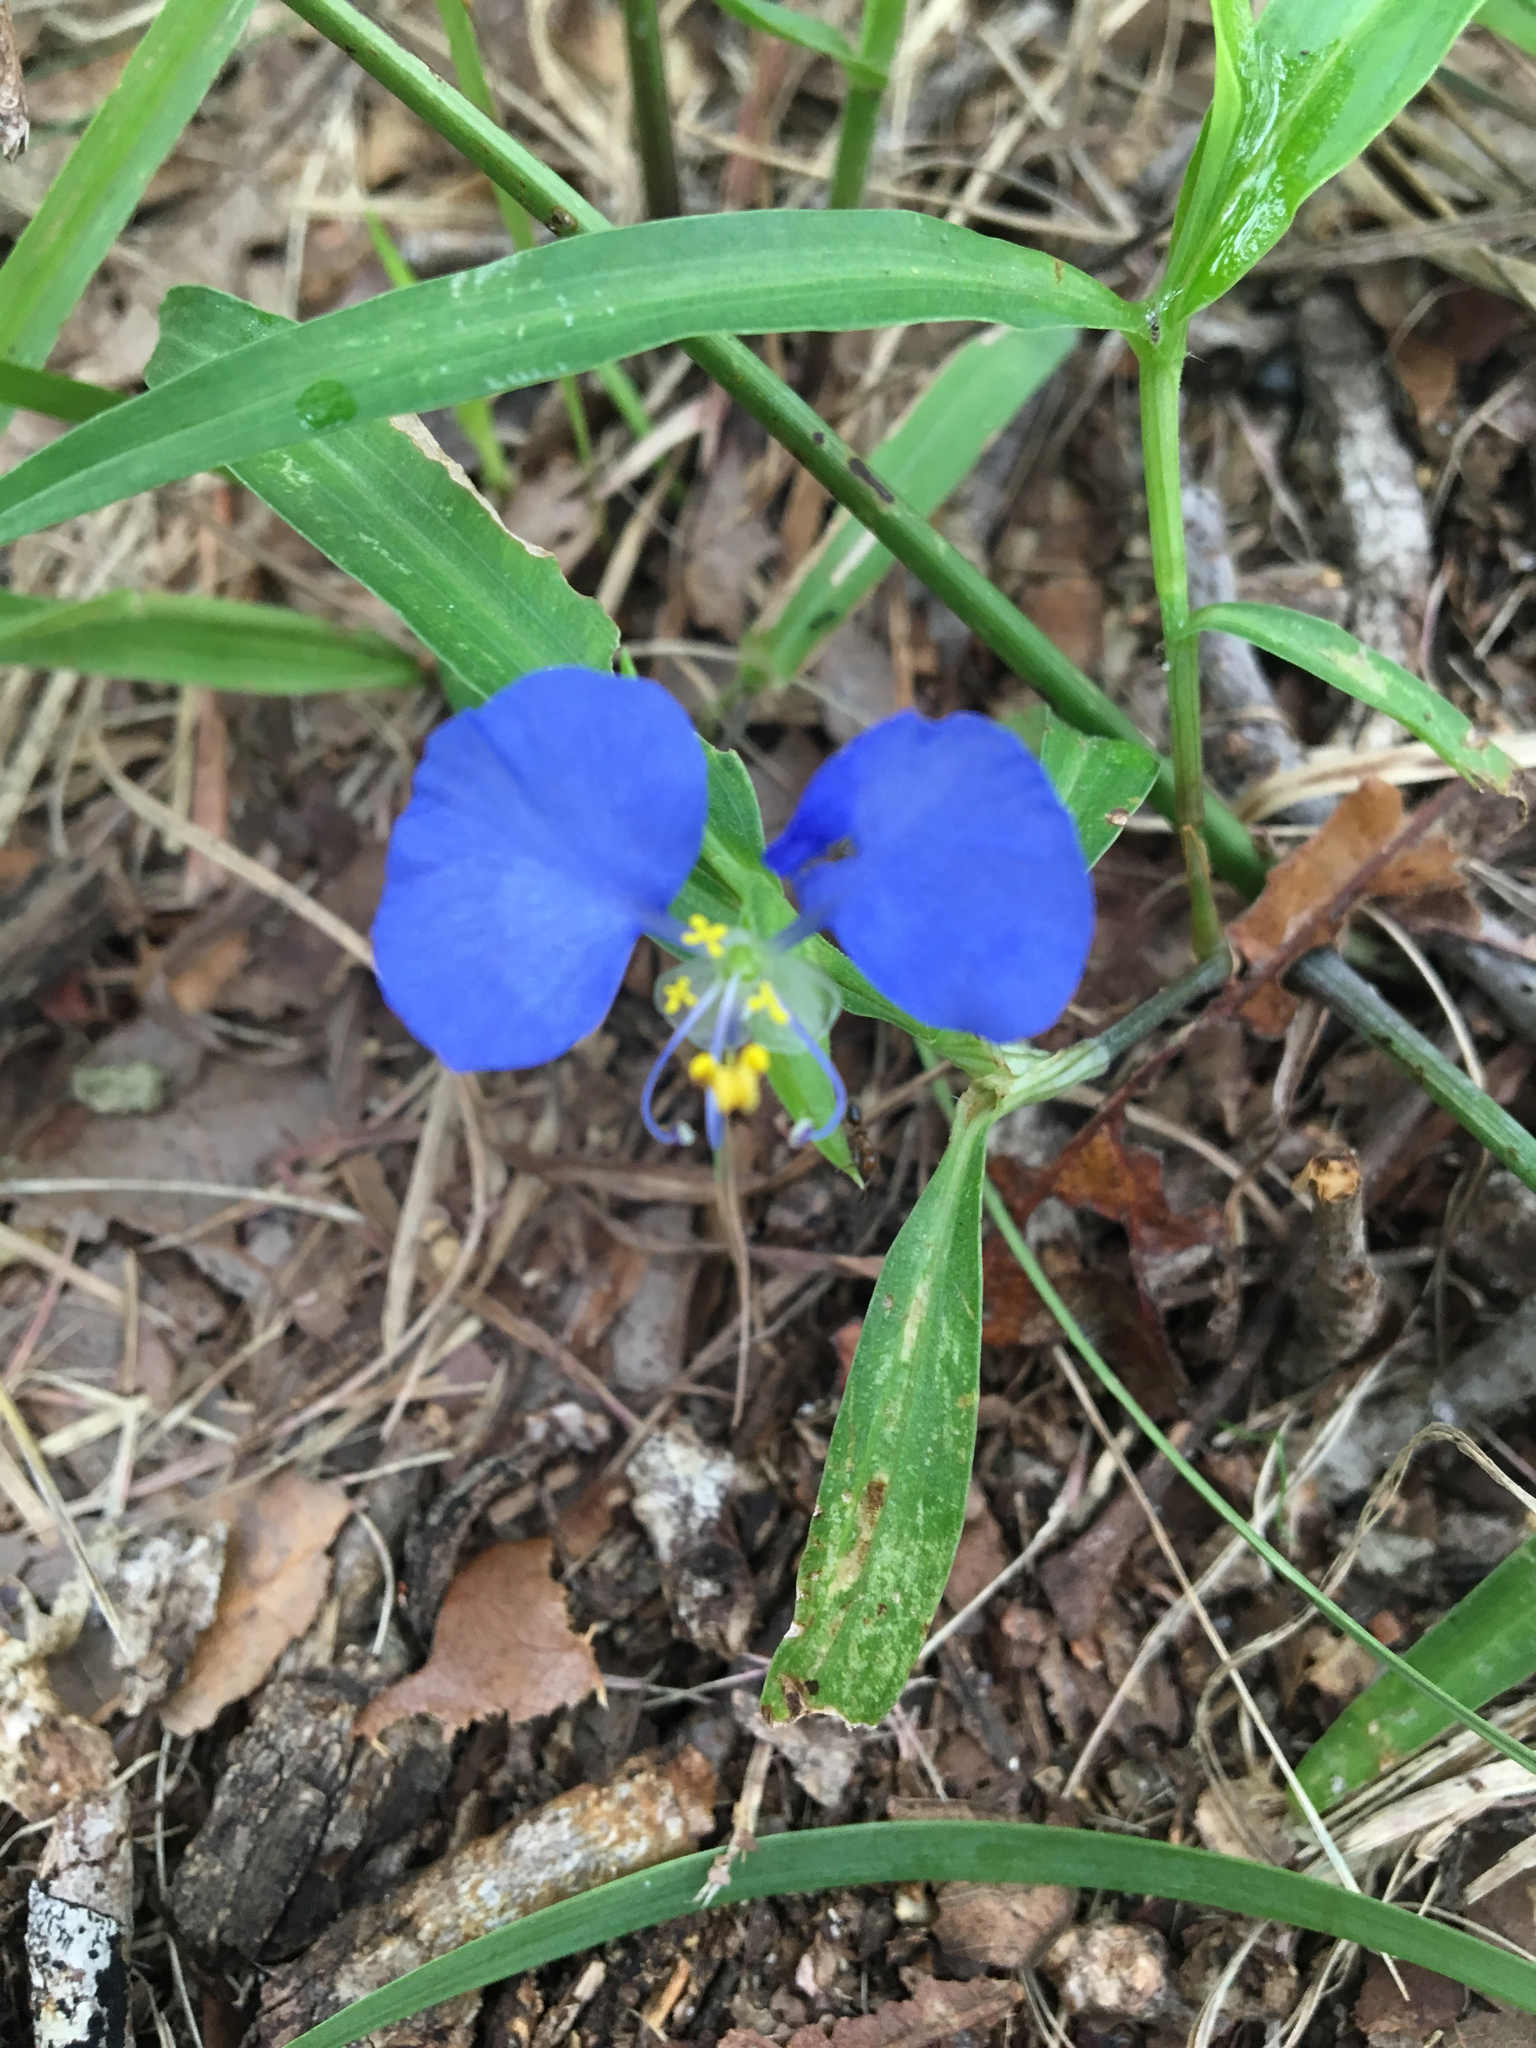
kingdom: Plantae
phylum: Tracheophyta
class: Liliopsida
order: Commelinales
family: Commelinaceae
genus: Commelina
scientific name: Commelina erecta
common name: Blousel blommetjie
